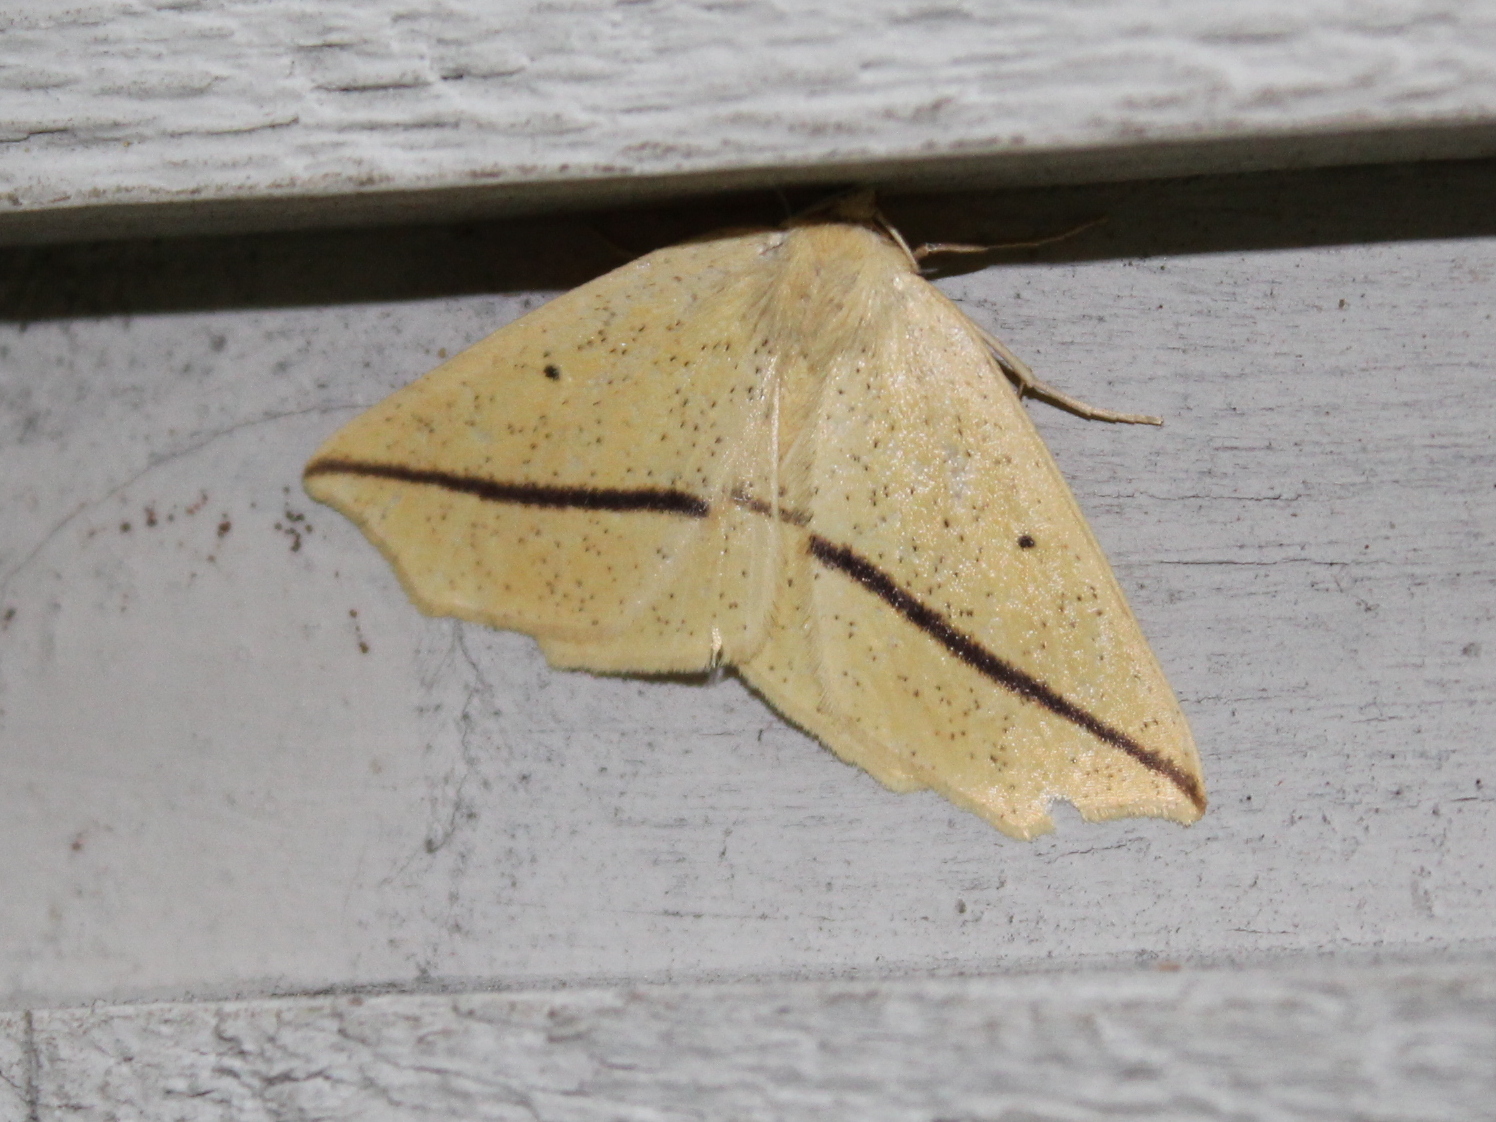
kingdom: Animalia
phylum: Arthropoda
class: Insecta
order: Lepidoptera
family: Geometridae
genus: Tetracis
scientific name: Tetracis crocallata
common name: Yellow slant-line
